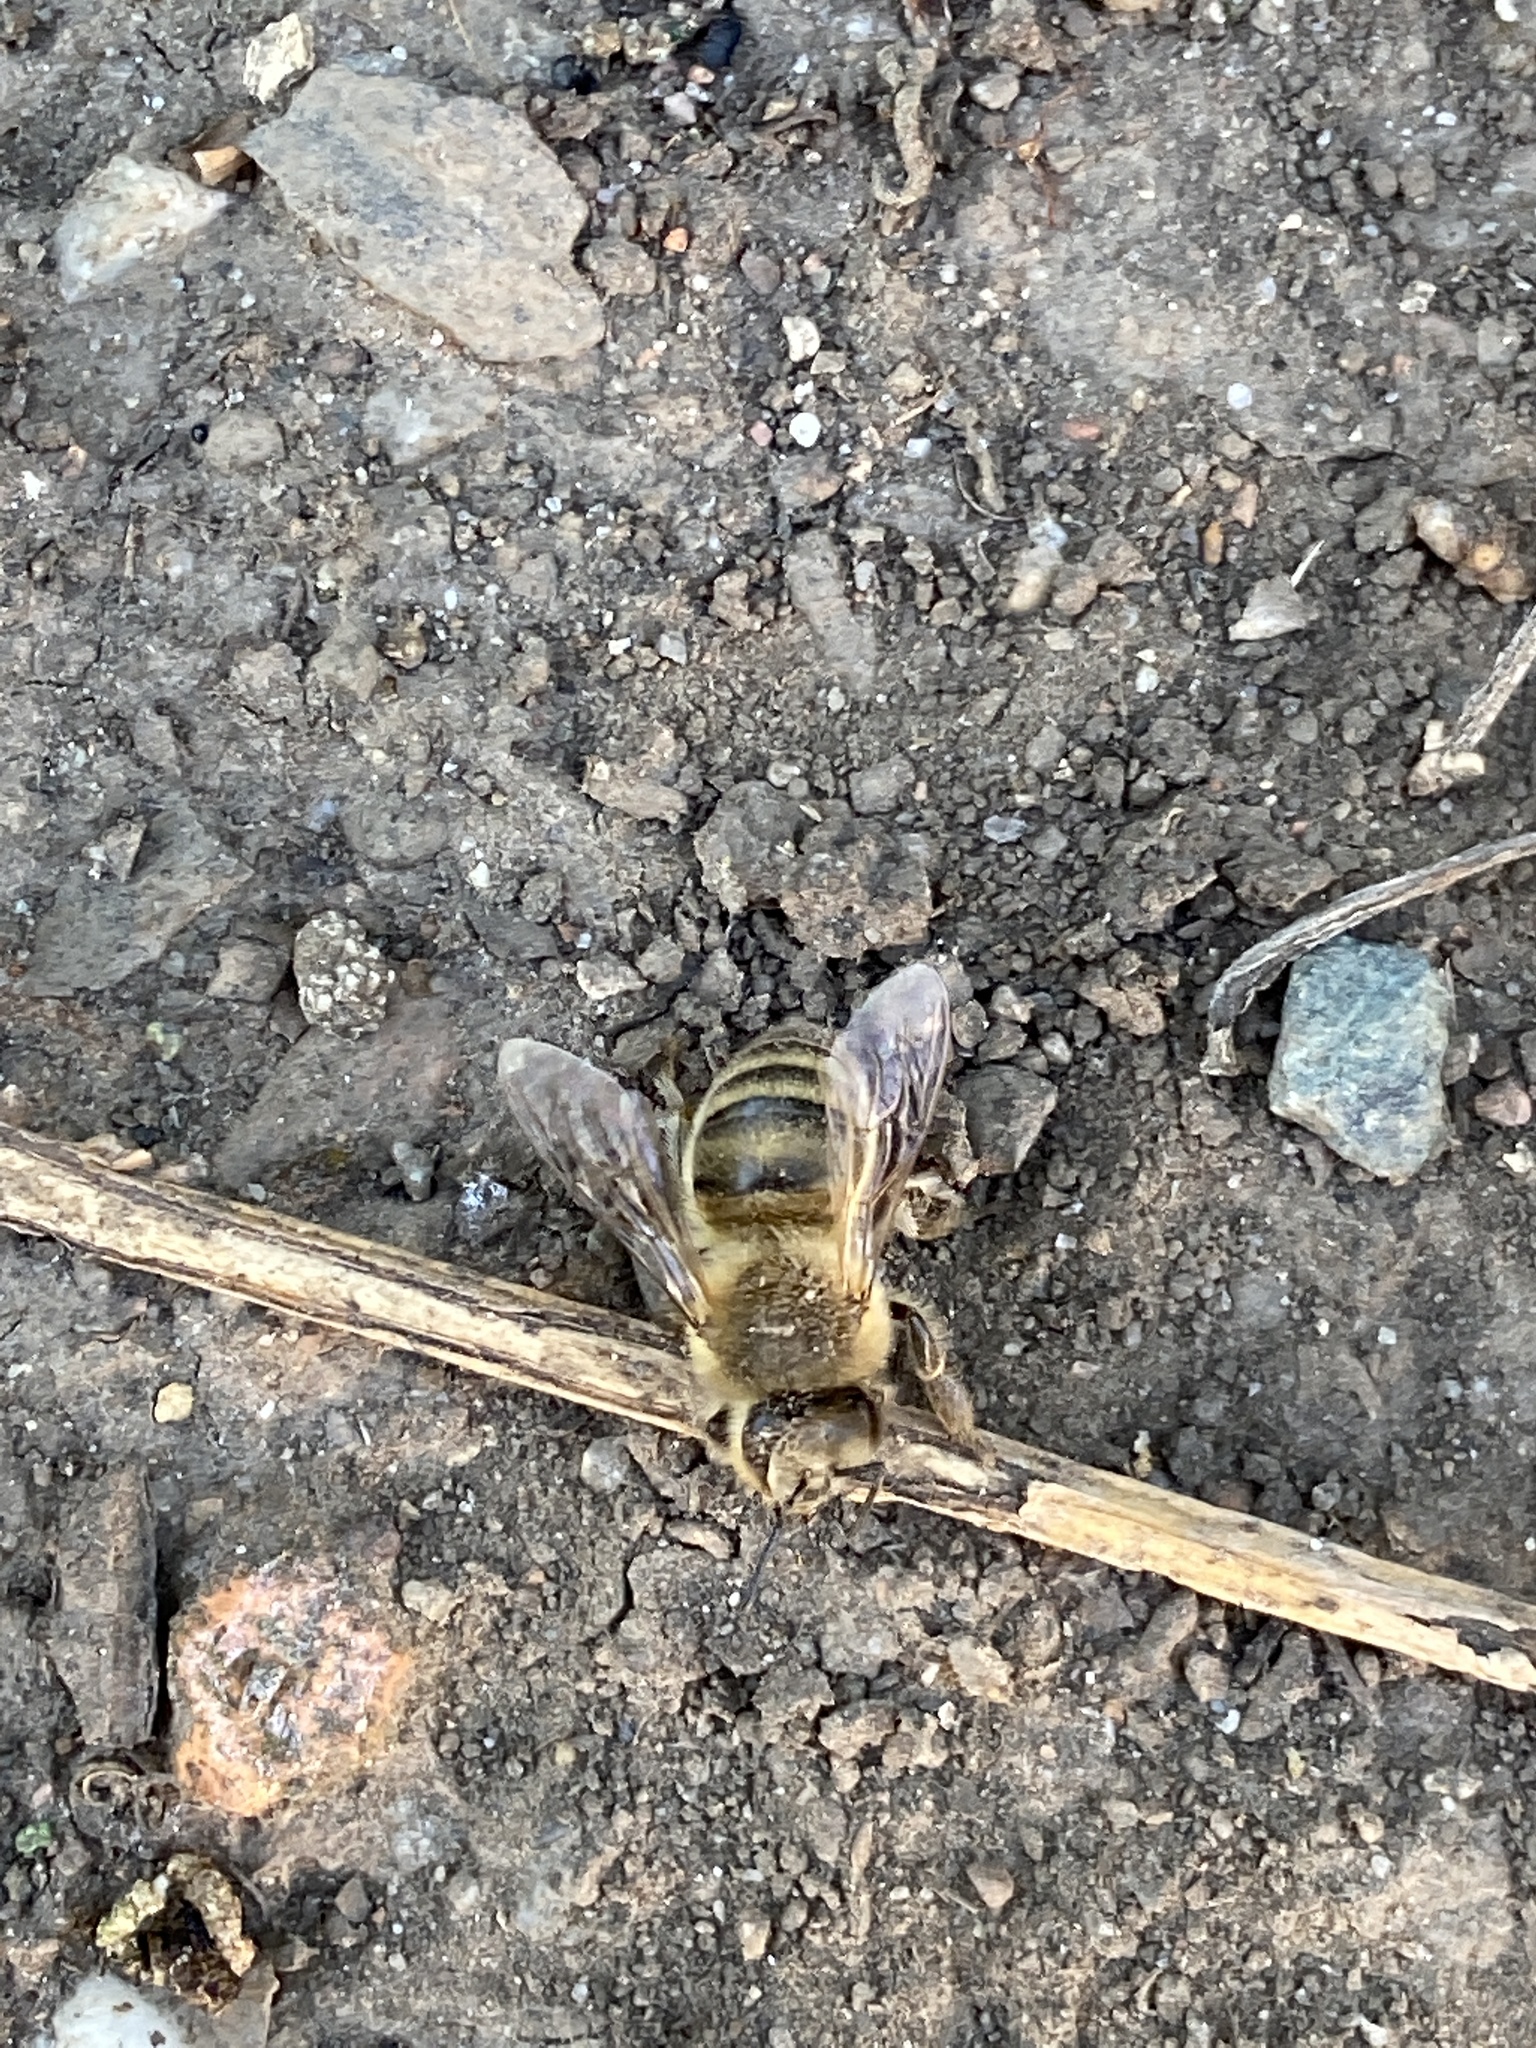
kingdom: Animalia
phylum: Arthropoda
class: Insecta
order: Hymenoptera
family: Apidae
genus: Apis
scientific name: Apis mellifera
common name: Honey bee
